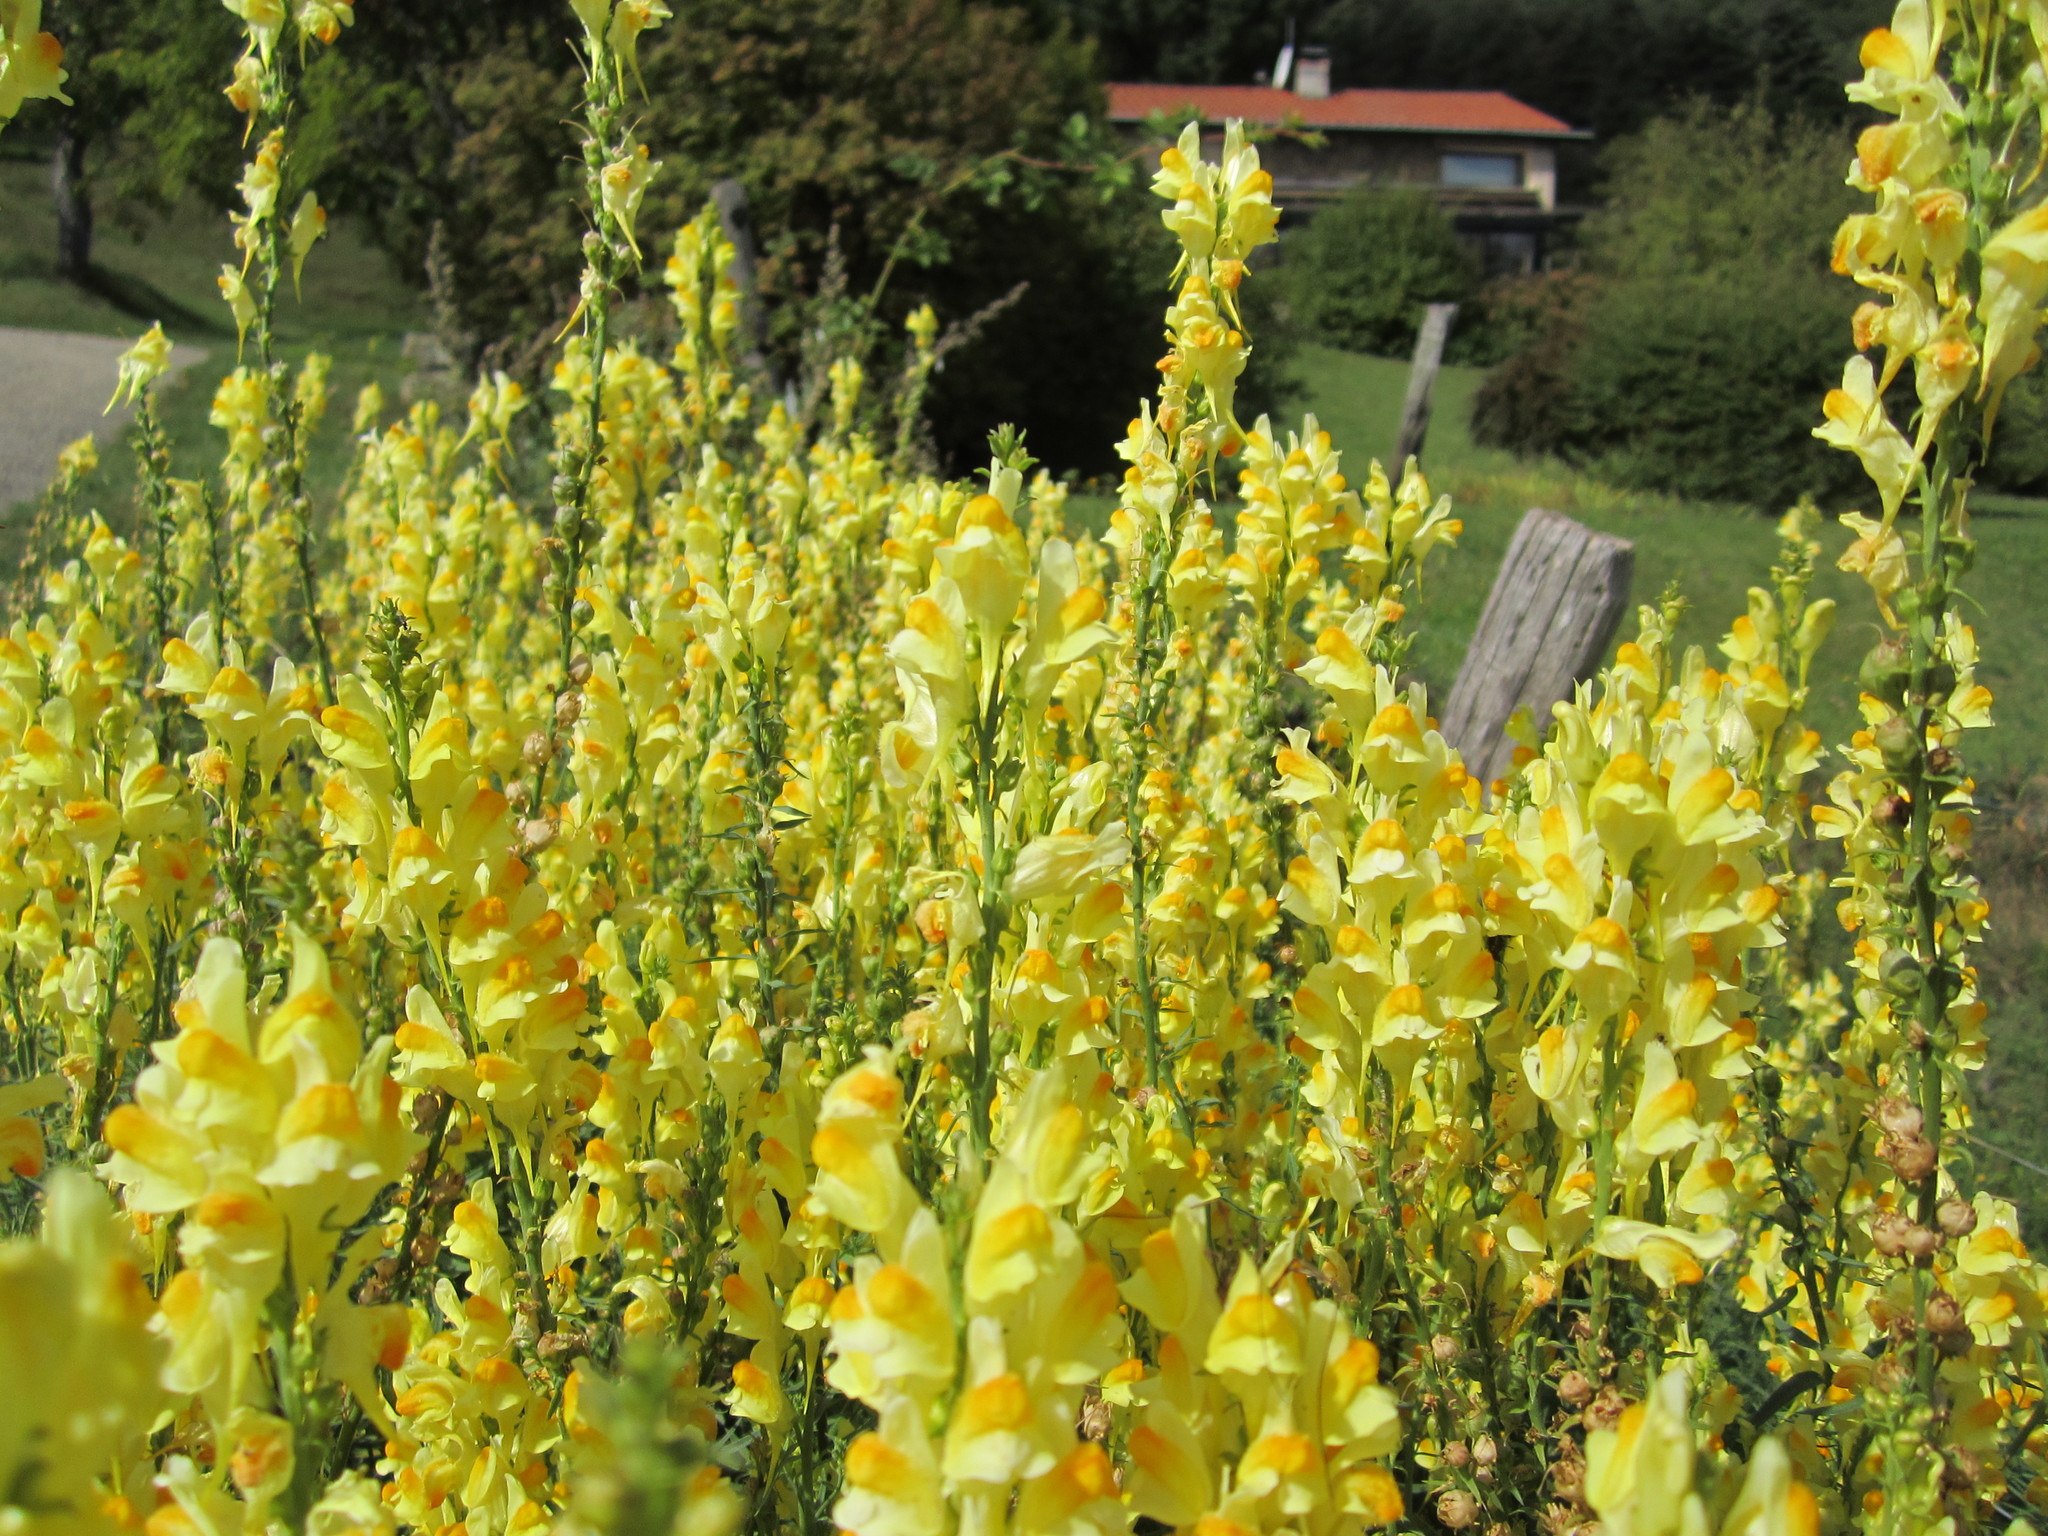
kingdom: Plantae
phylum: Tracheophyta
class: Magnoliopsida
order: Lamiales
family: Plantaginaceae
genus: Linaria
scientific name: Linaria vulgaris
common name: Butter and eggs
